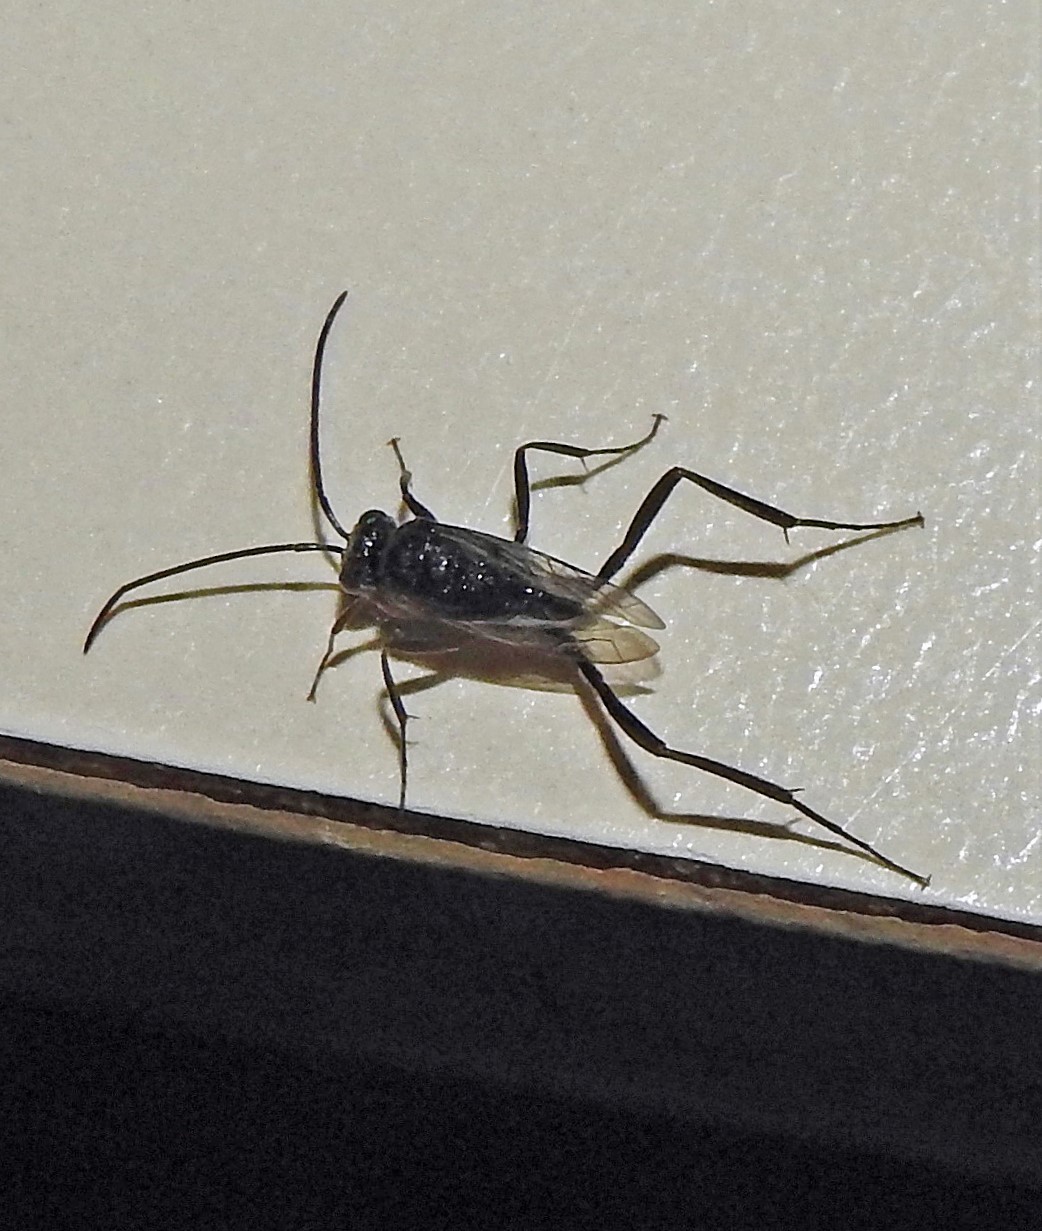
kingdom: Animalia
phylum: Arthropoda
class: Insecta
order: Hymenoptera
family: Evaniidae
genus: Evania
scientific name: Evania appendigaster
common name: Ensign wasp
